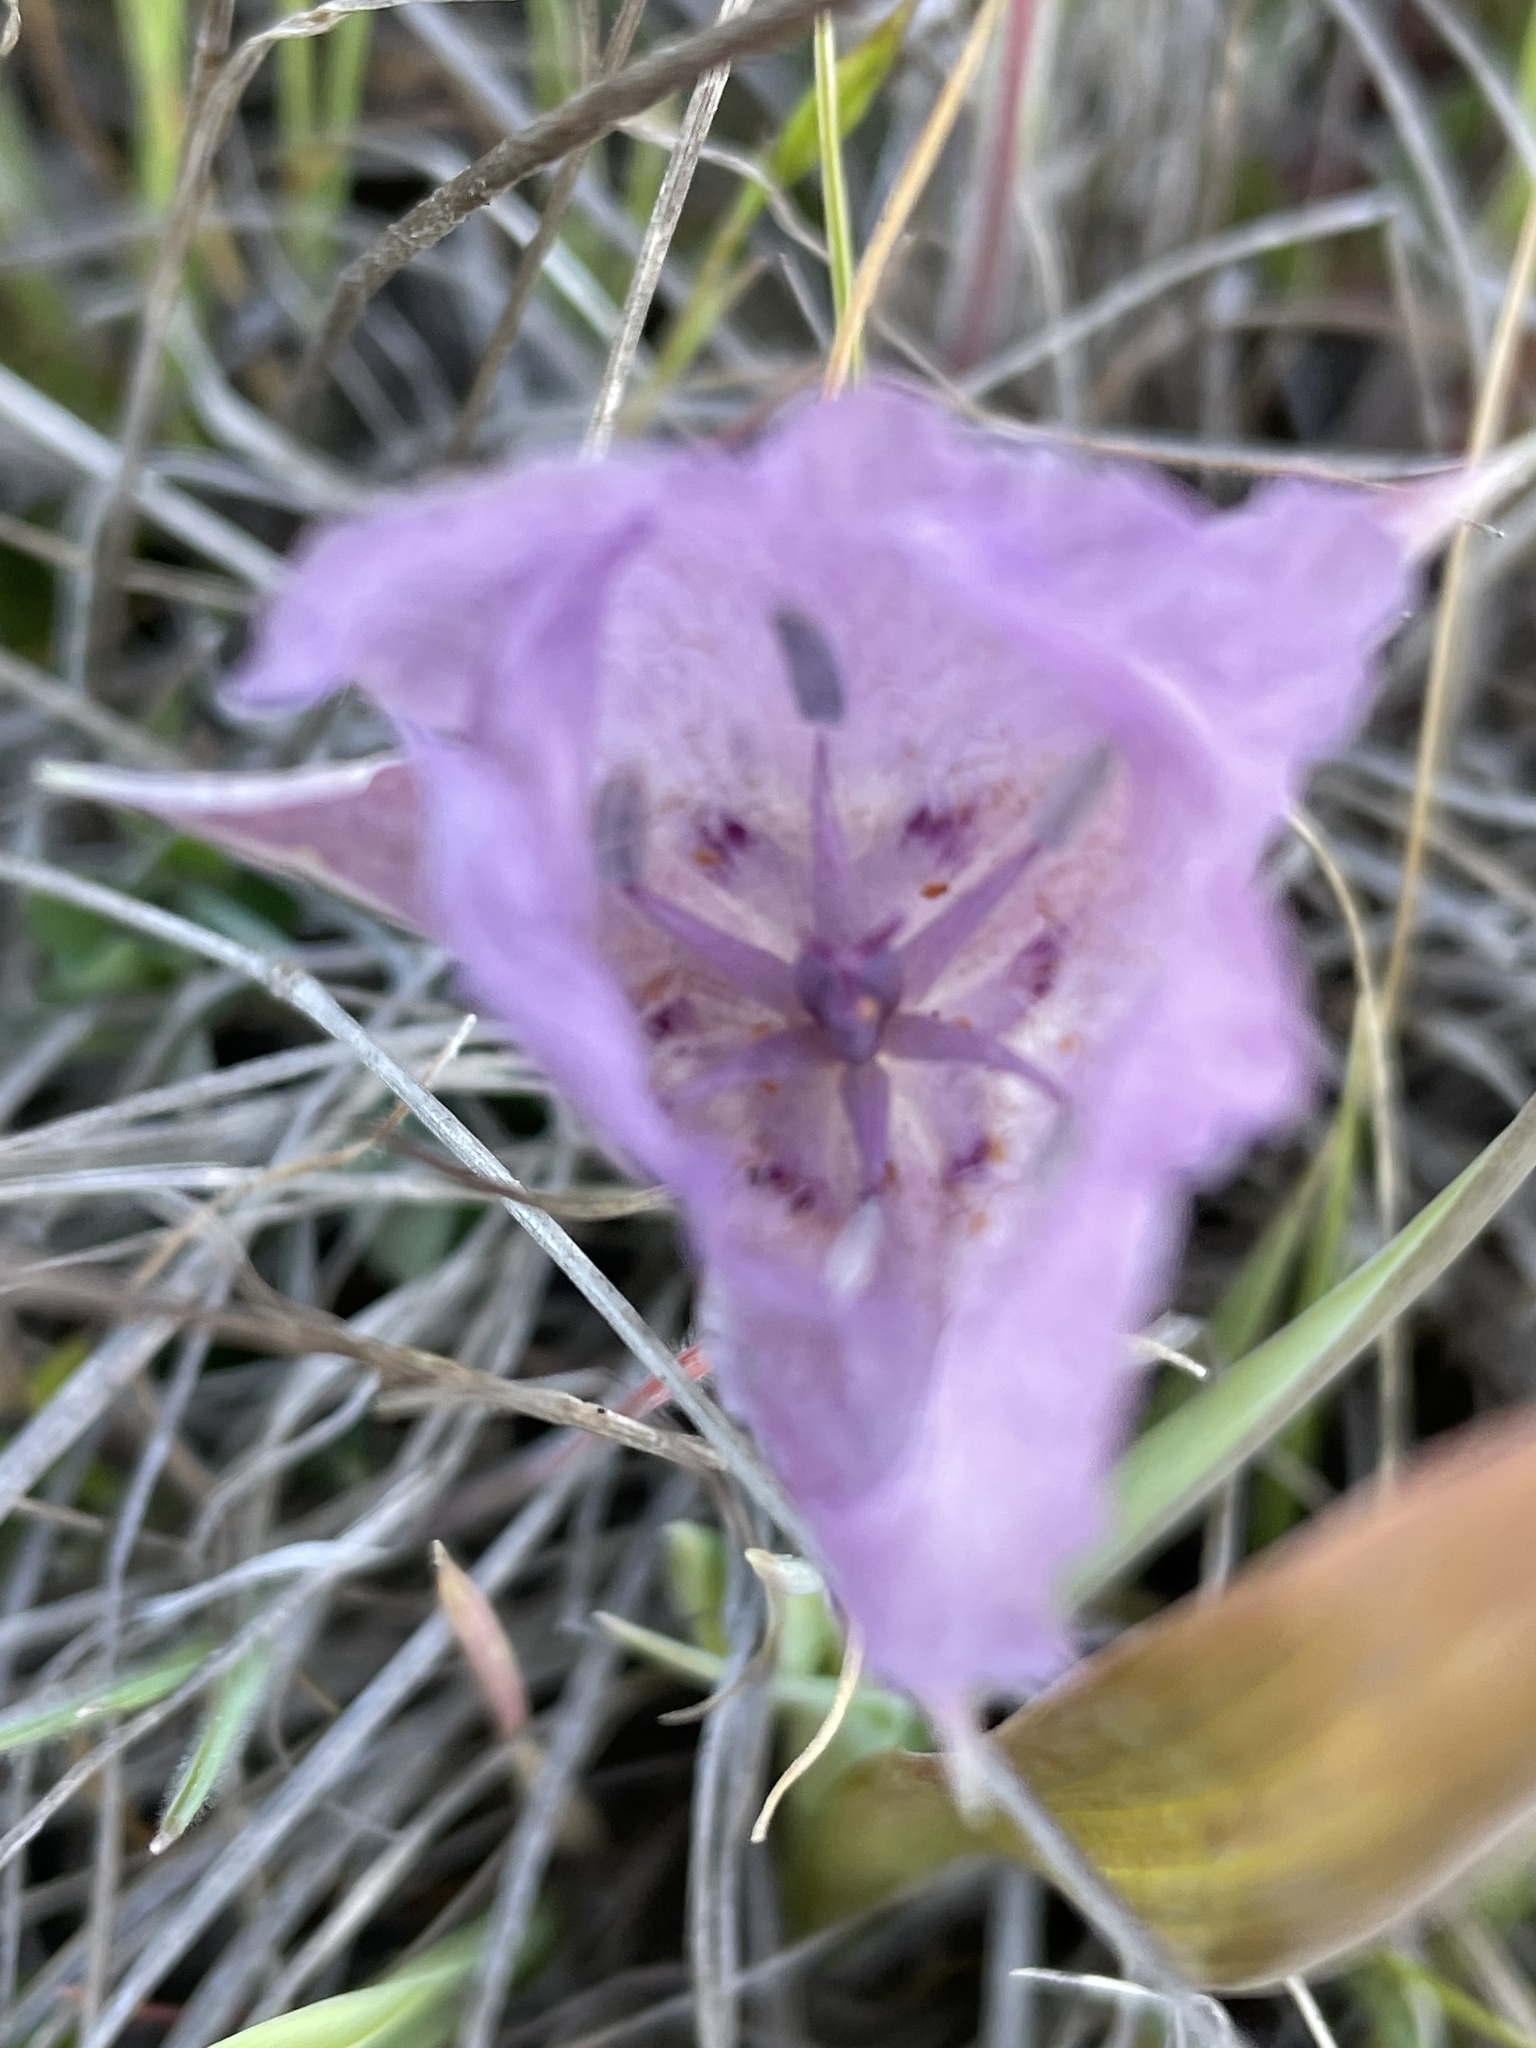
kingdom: Plantae
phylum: Tracheophyta
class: Liliopsida
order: Liliales
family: Liliaceae
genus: Calochortus
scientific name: Calochortus uniflorus
